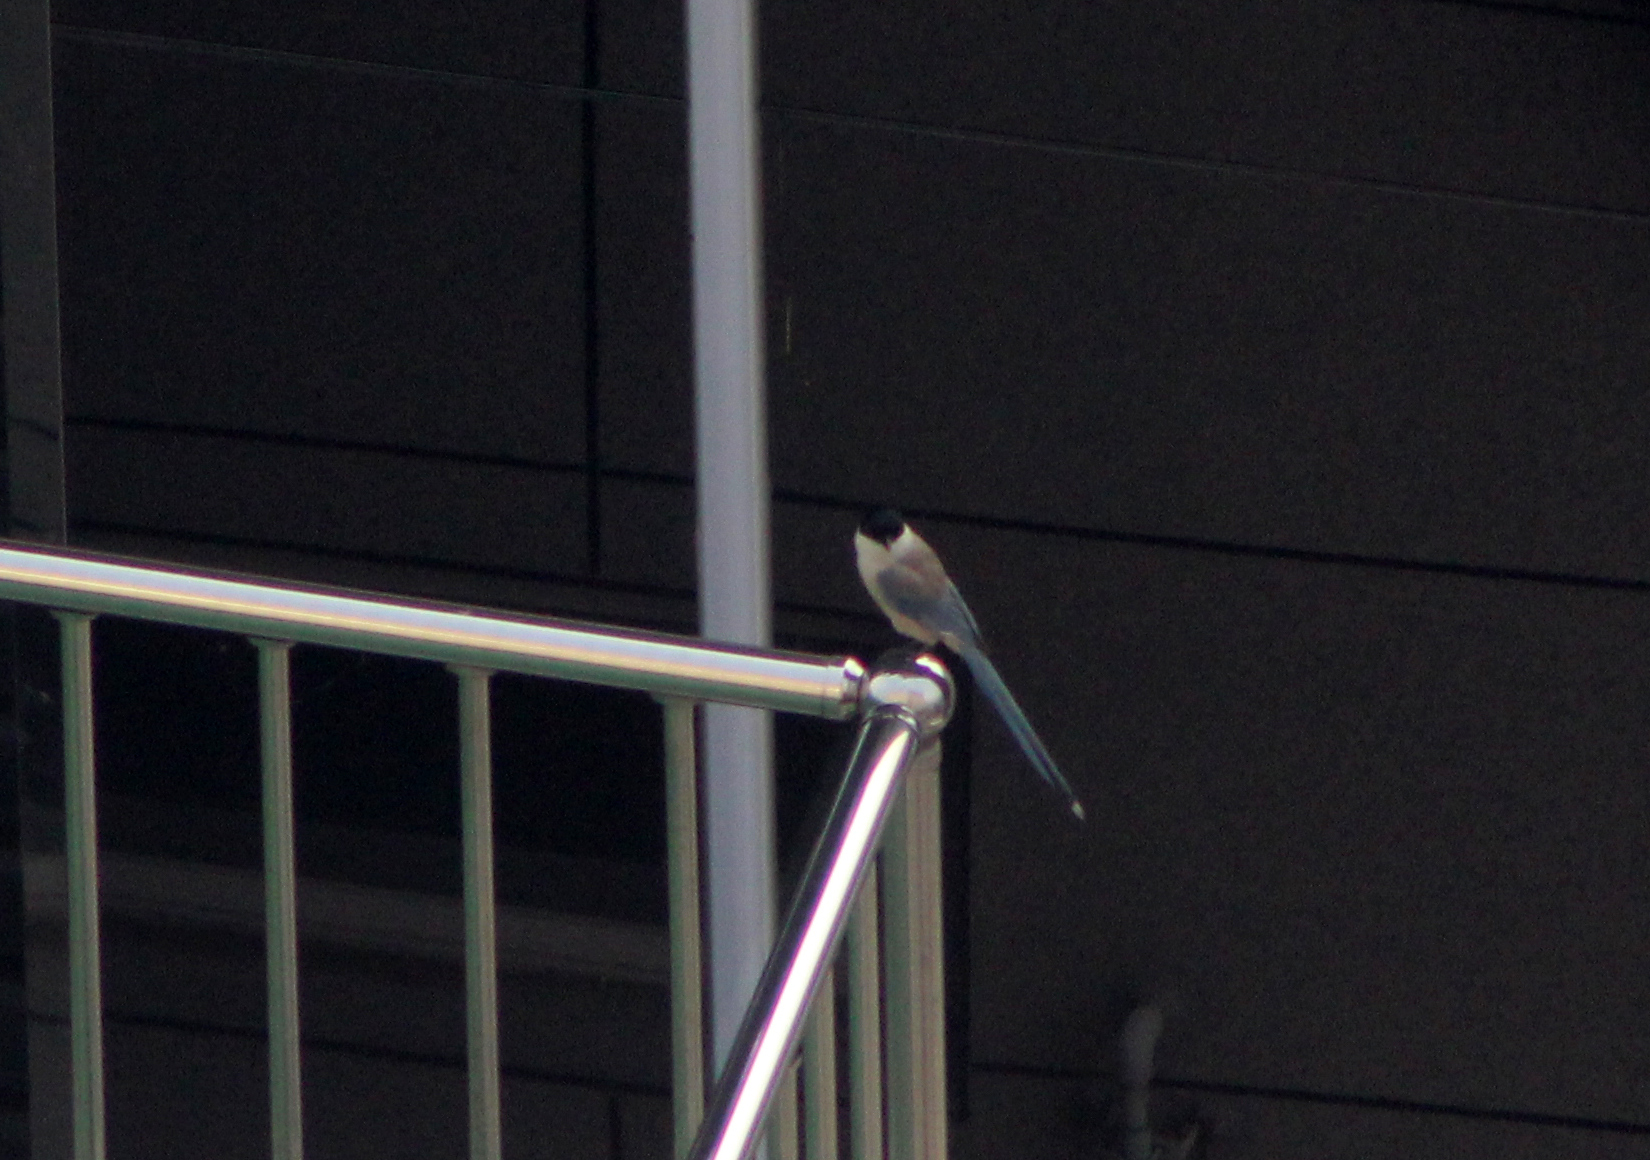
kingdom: Animalia
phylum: Chordata
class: Aves
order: Passeriformes
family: Corvidae
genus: Cyanopica
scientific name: Cyanopica cyanus
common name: Azure-winged magpie
